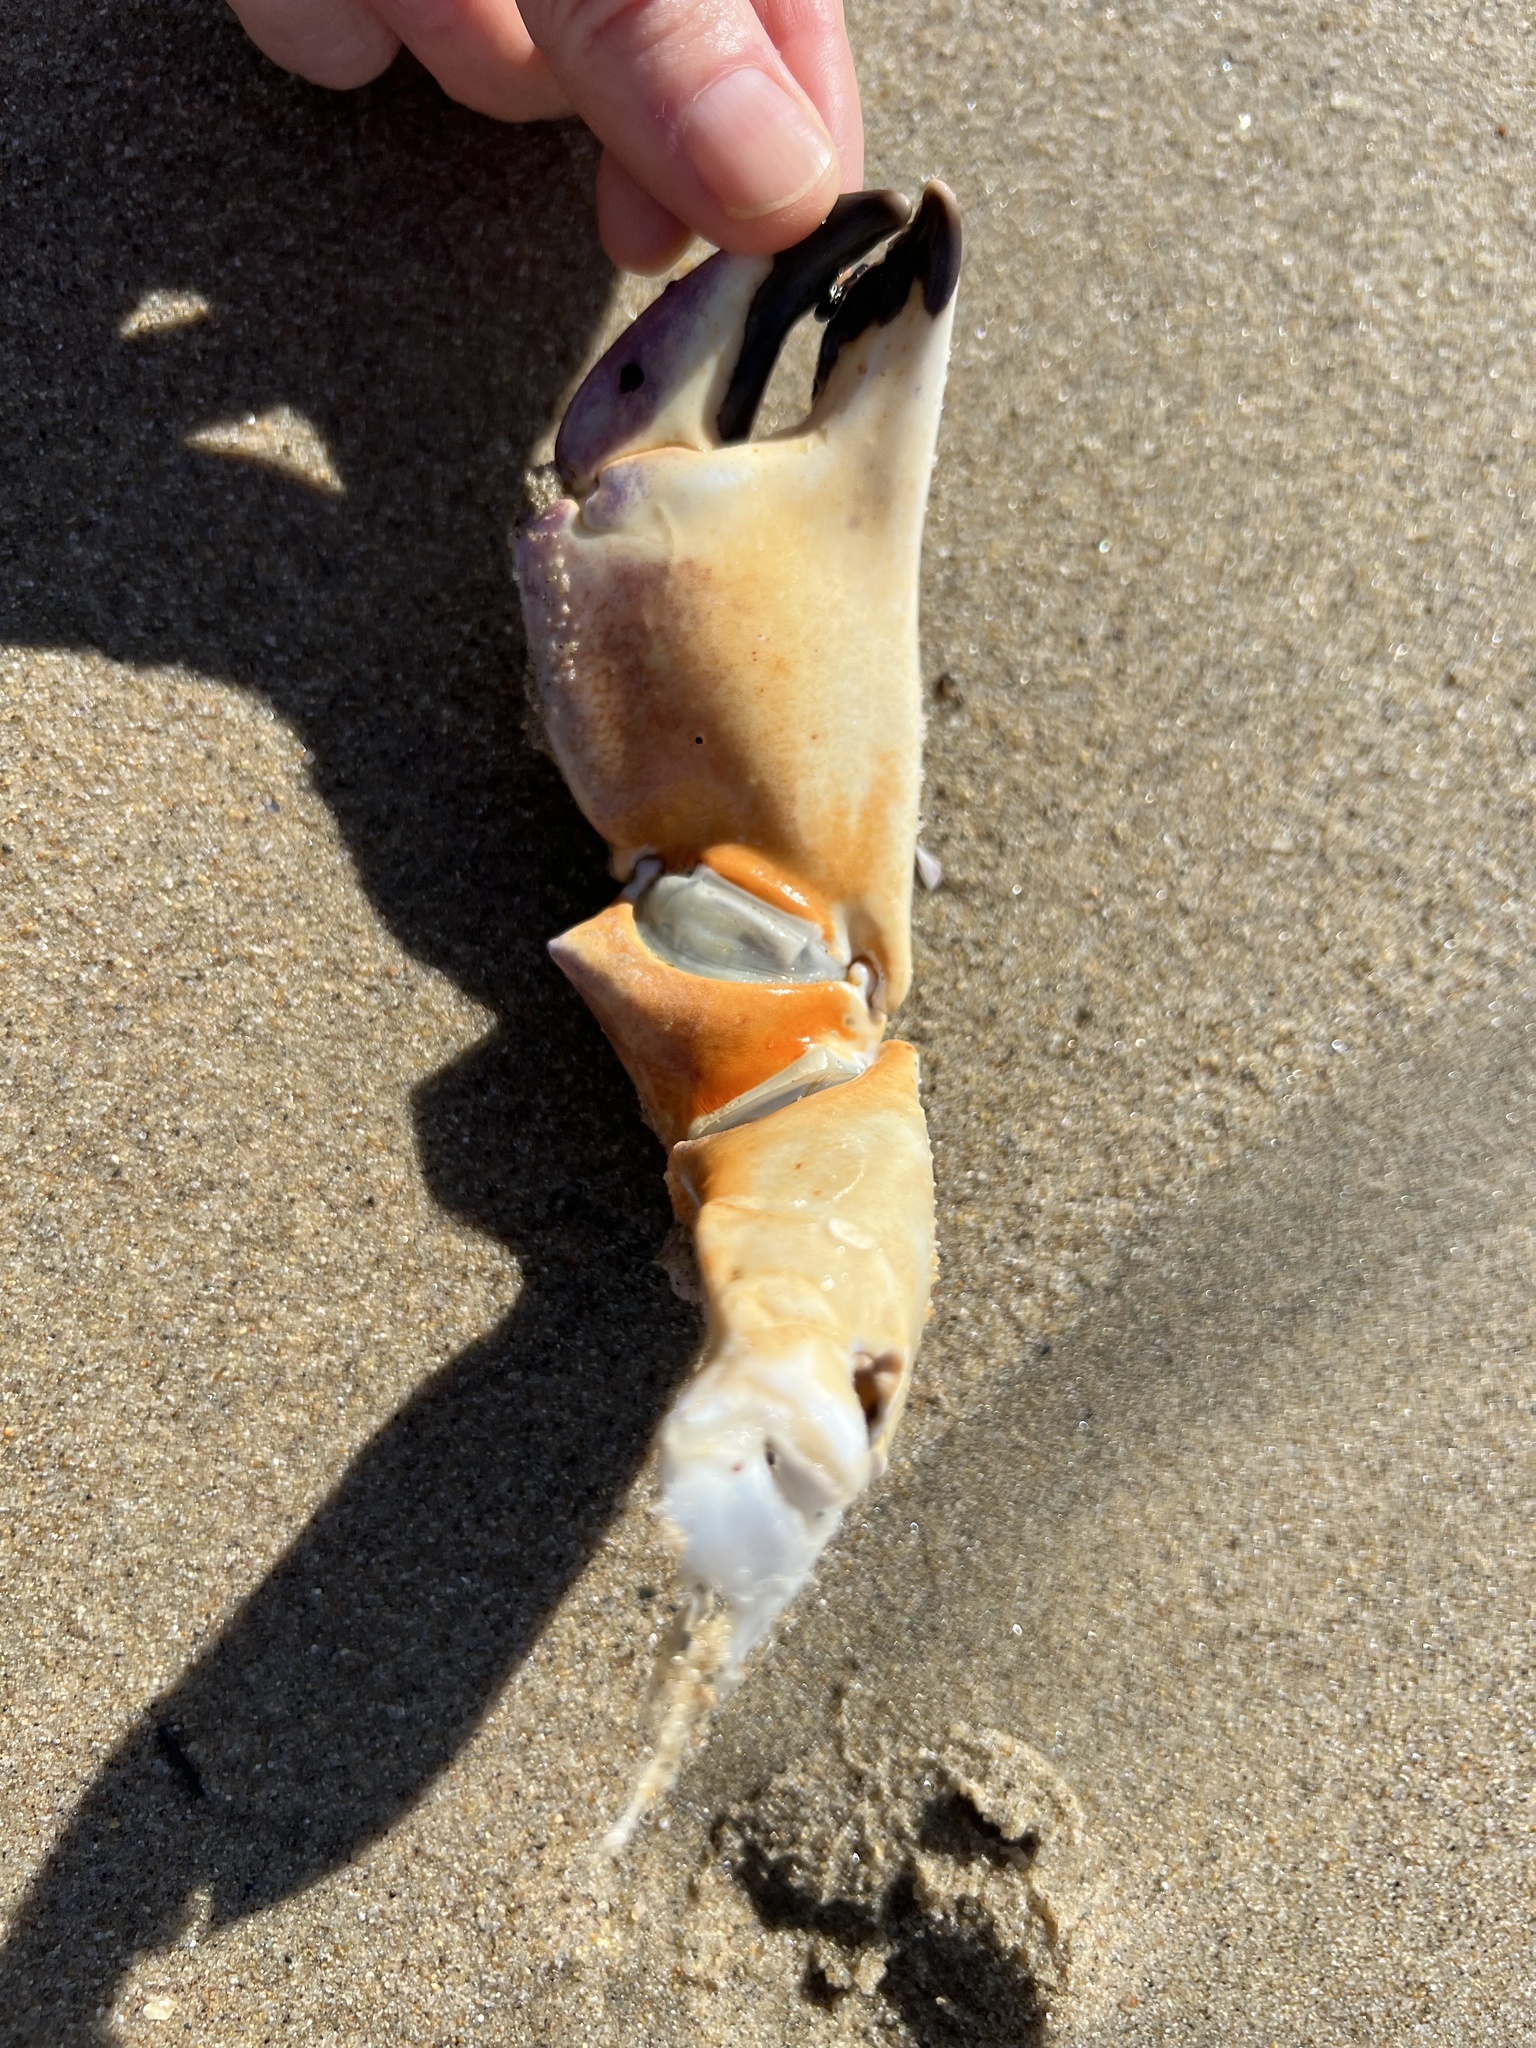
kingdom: Animalia
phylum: Arthropoda
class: Malacostraca
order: Decapoda
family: Cancridae
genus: Metacarcinus
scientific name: Metacarcinus anthonyi
